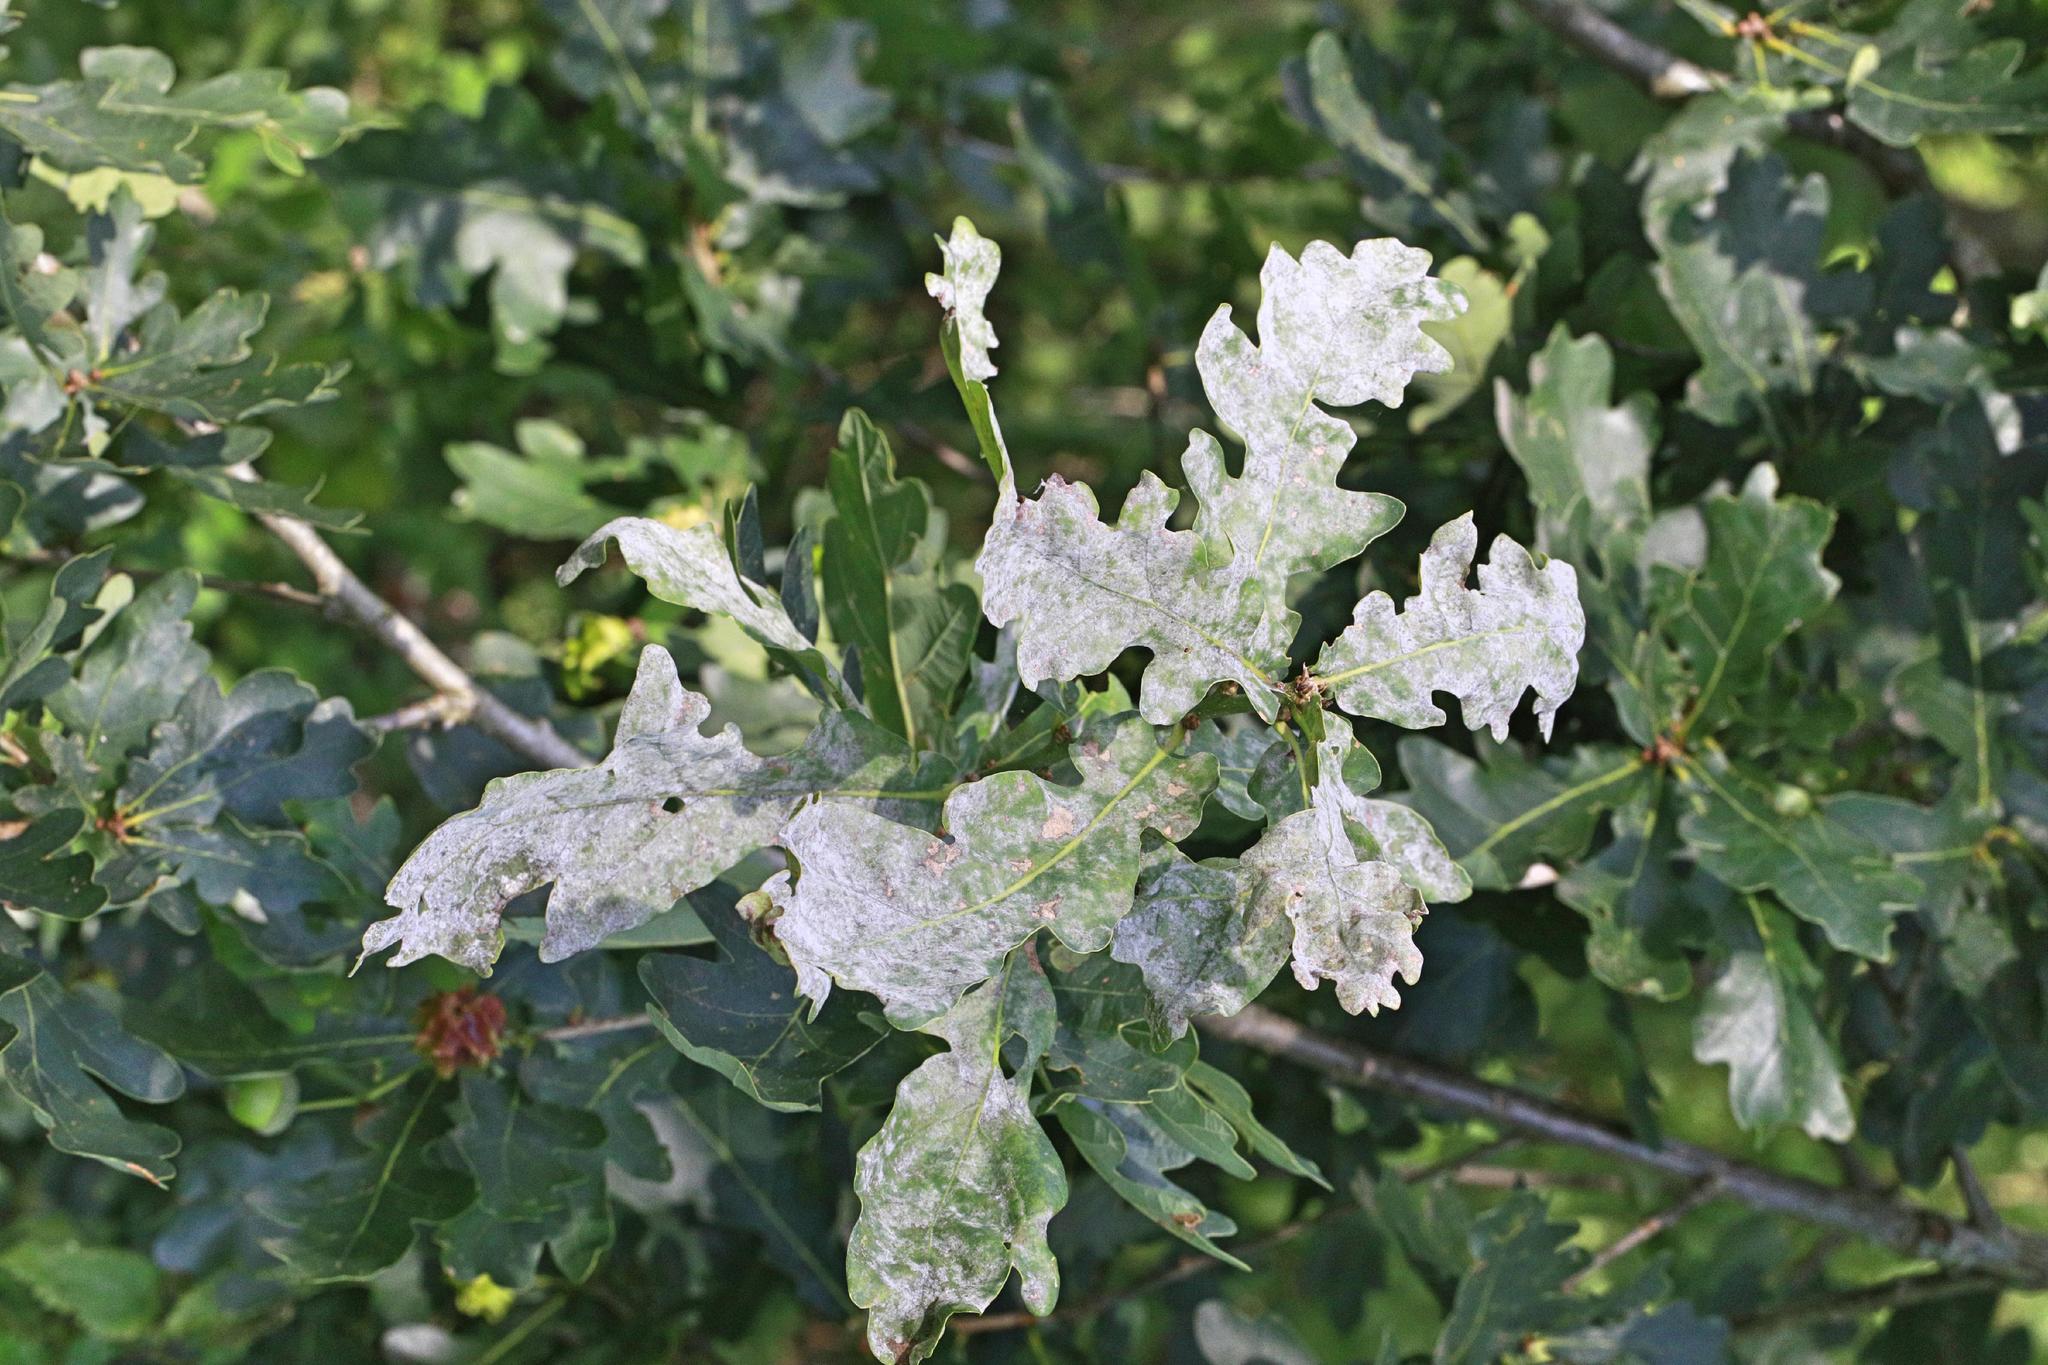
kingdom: Fungi
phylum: Ascomycota
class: Leotiomycetes
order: Helotiales
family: Erysiphaceae
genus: Erysiphe
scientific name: Erysiphe alphitoides
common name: Oak mildew
